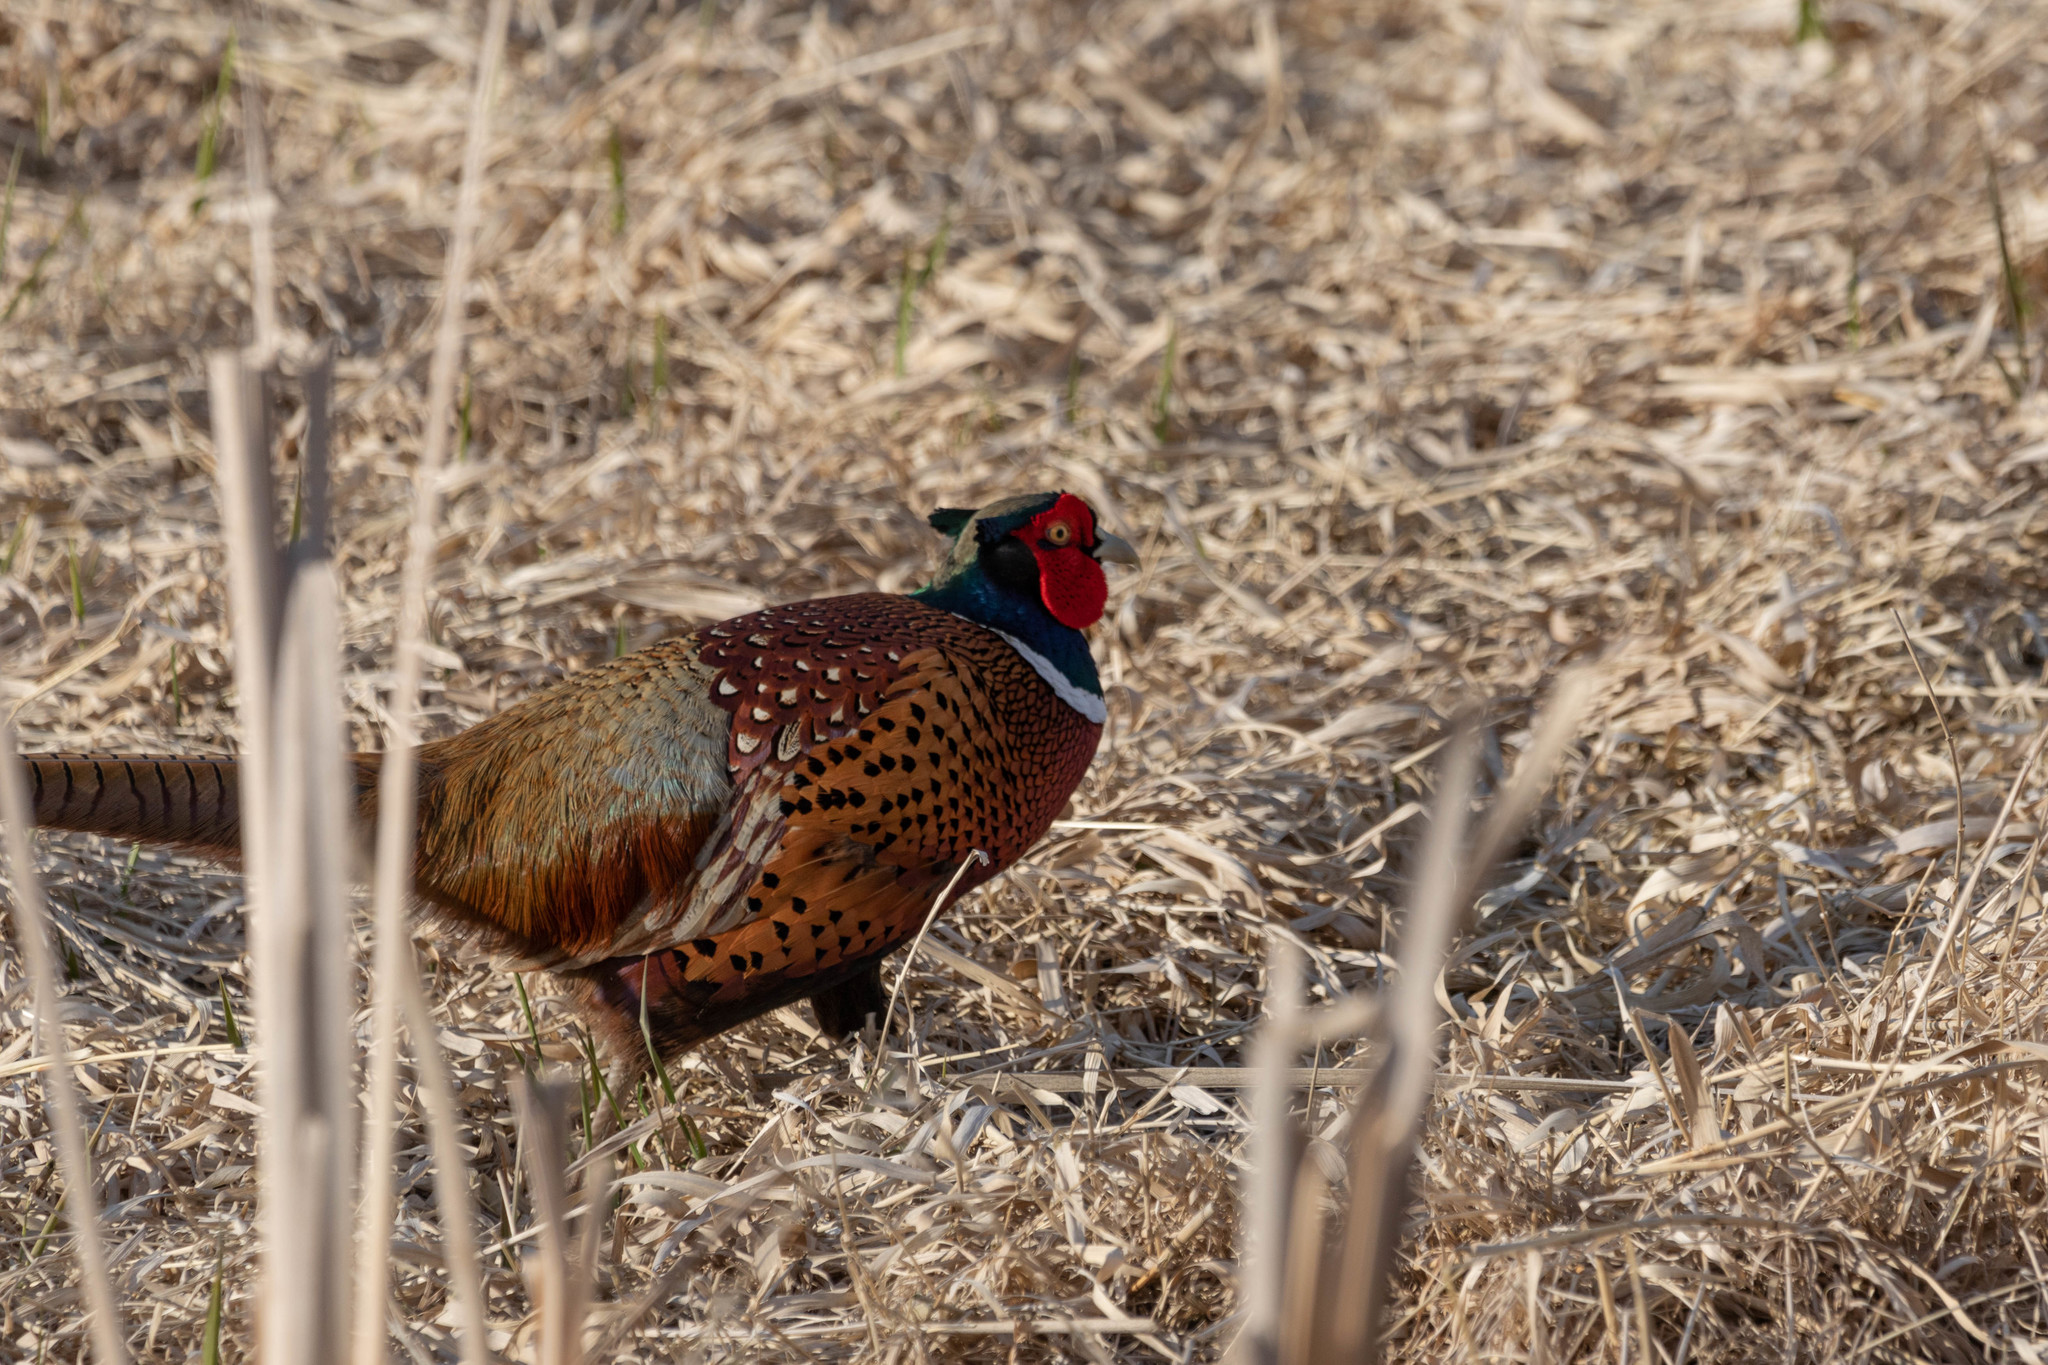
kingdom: Animalia
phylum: Chordata
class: Aves
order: Galliformes
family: Phasianidae
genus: Phasianus
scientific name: Phasianus colchicus
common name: Common pheasant
